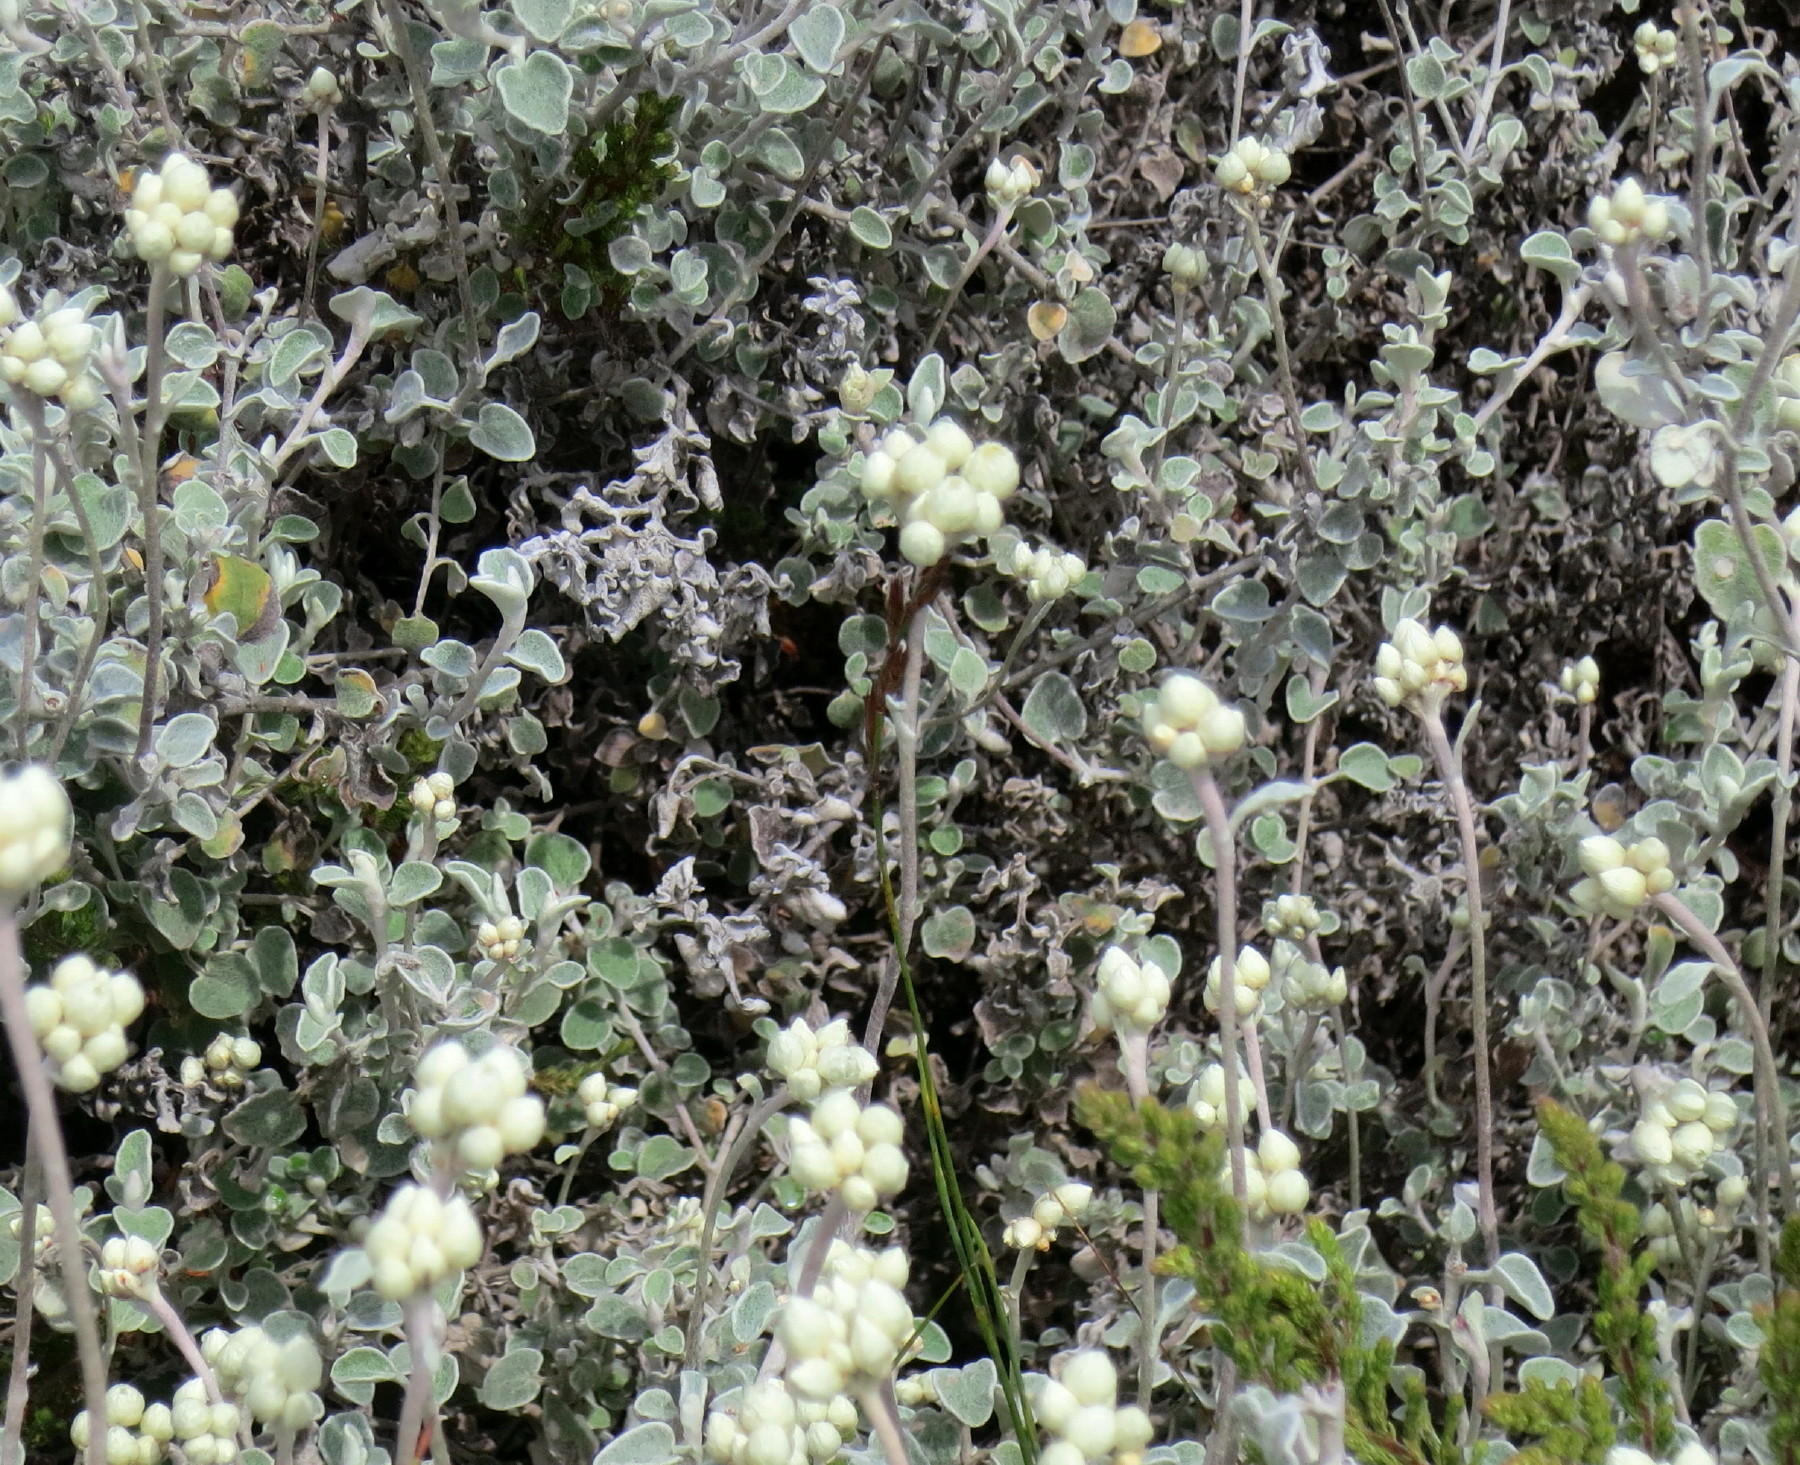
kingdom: Plantae
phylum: Tracheophyta
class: Magnoliopsida
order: Asterales
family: Asteraceae
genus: Helichrysum
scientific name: Helichrysum petiolare
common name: Licorice-plant
